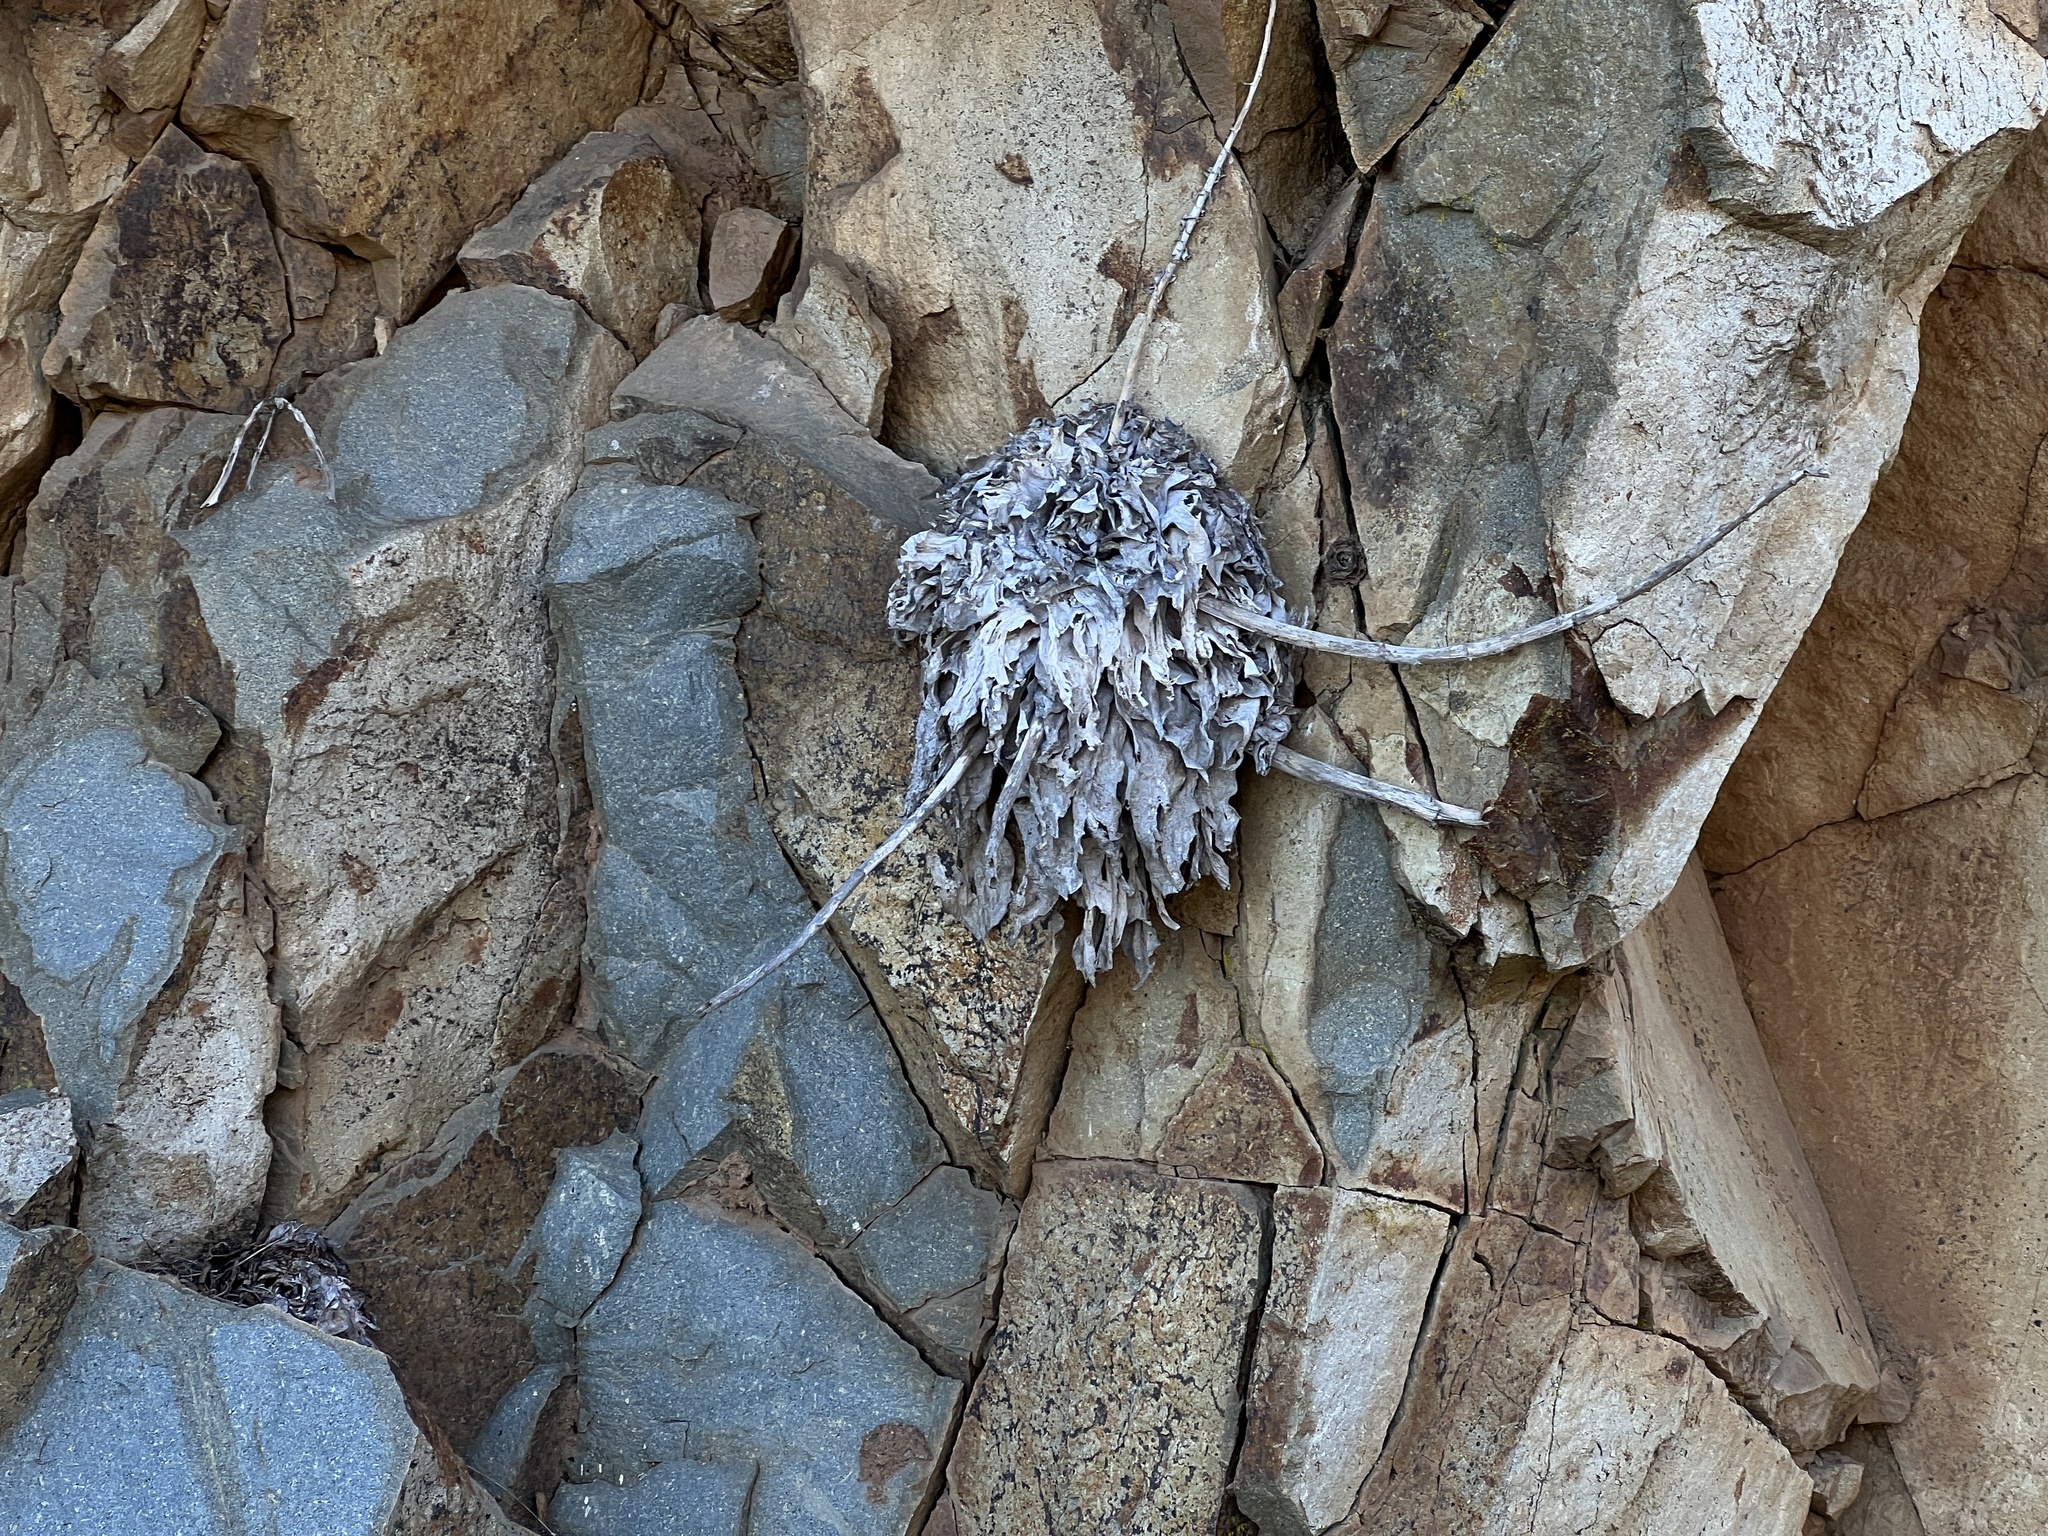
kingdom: Plantae
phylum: Tracheophyta
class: Magnoliopsida
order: Saxifragales
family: Crassulaceae
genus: Dudleya
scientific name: Dudleya pulverulenta
